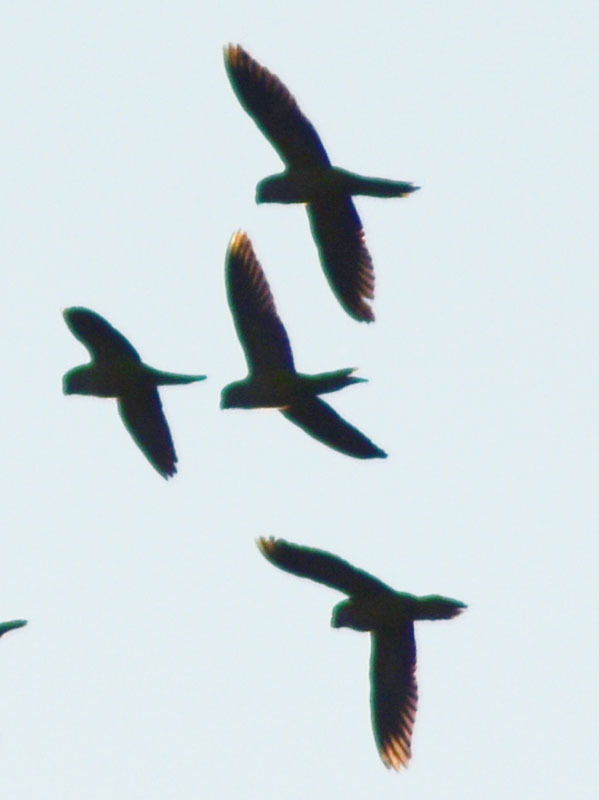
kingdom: Animalia
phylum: Chordata
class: Aves
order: Psittaciformes
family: Psittacidae
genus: Myiopsitta
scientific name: Myiopsitta monachus
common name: Monk parakeet
